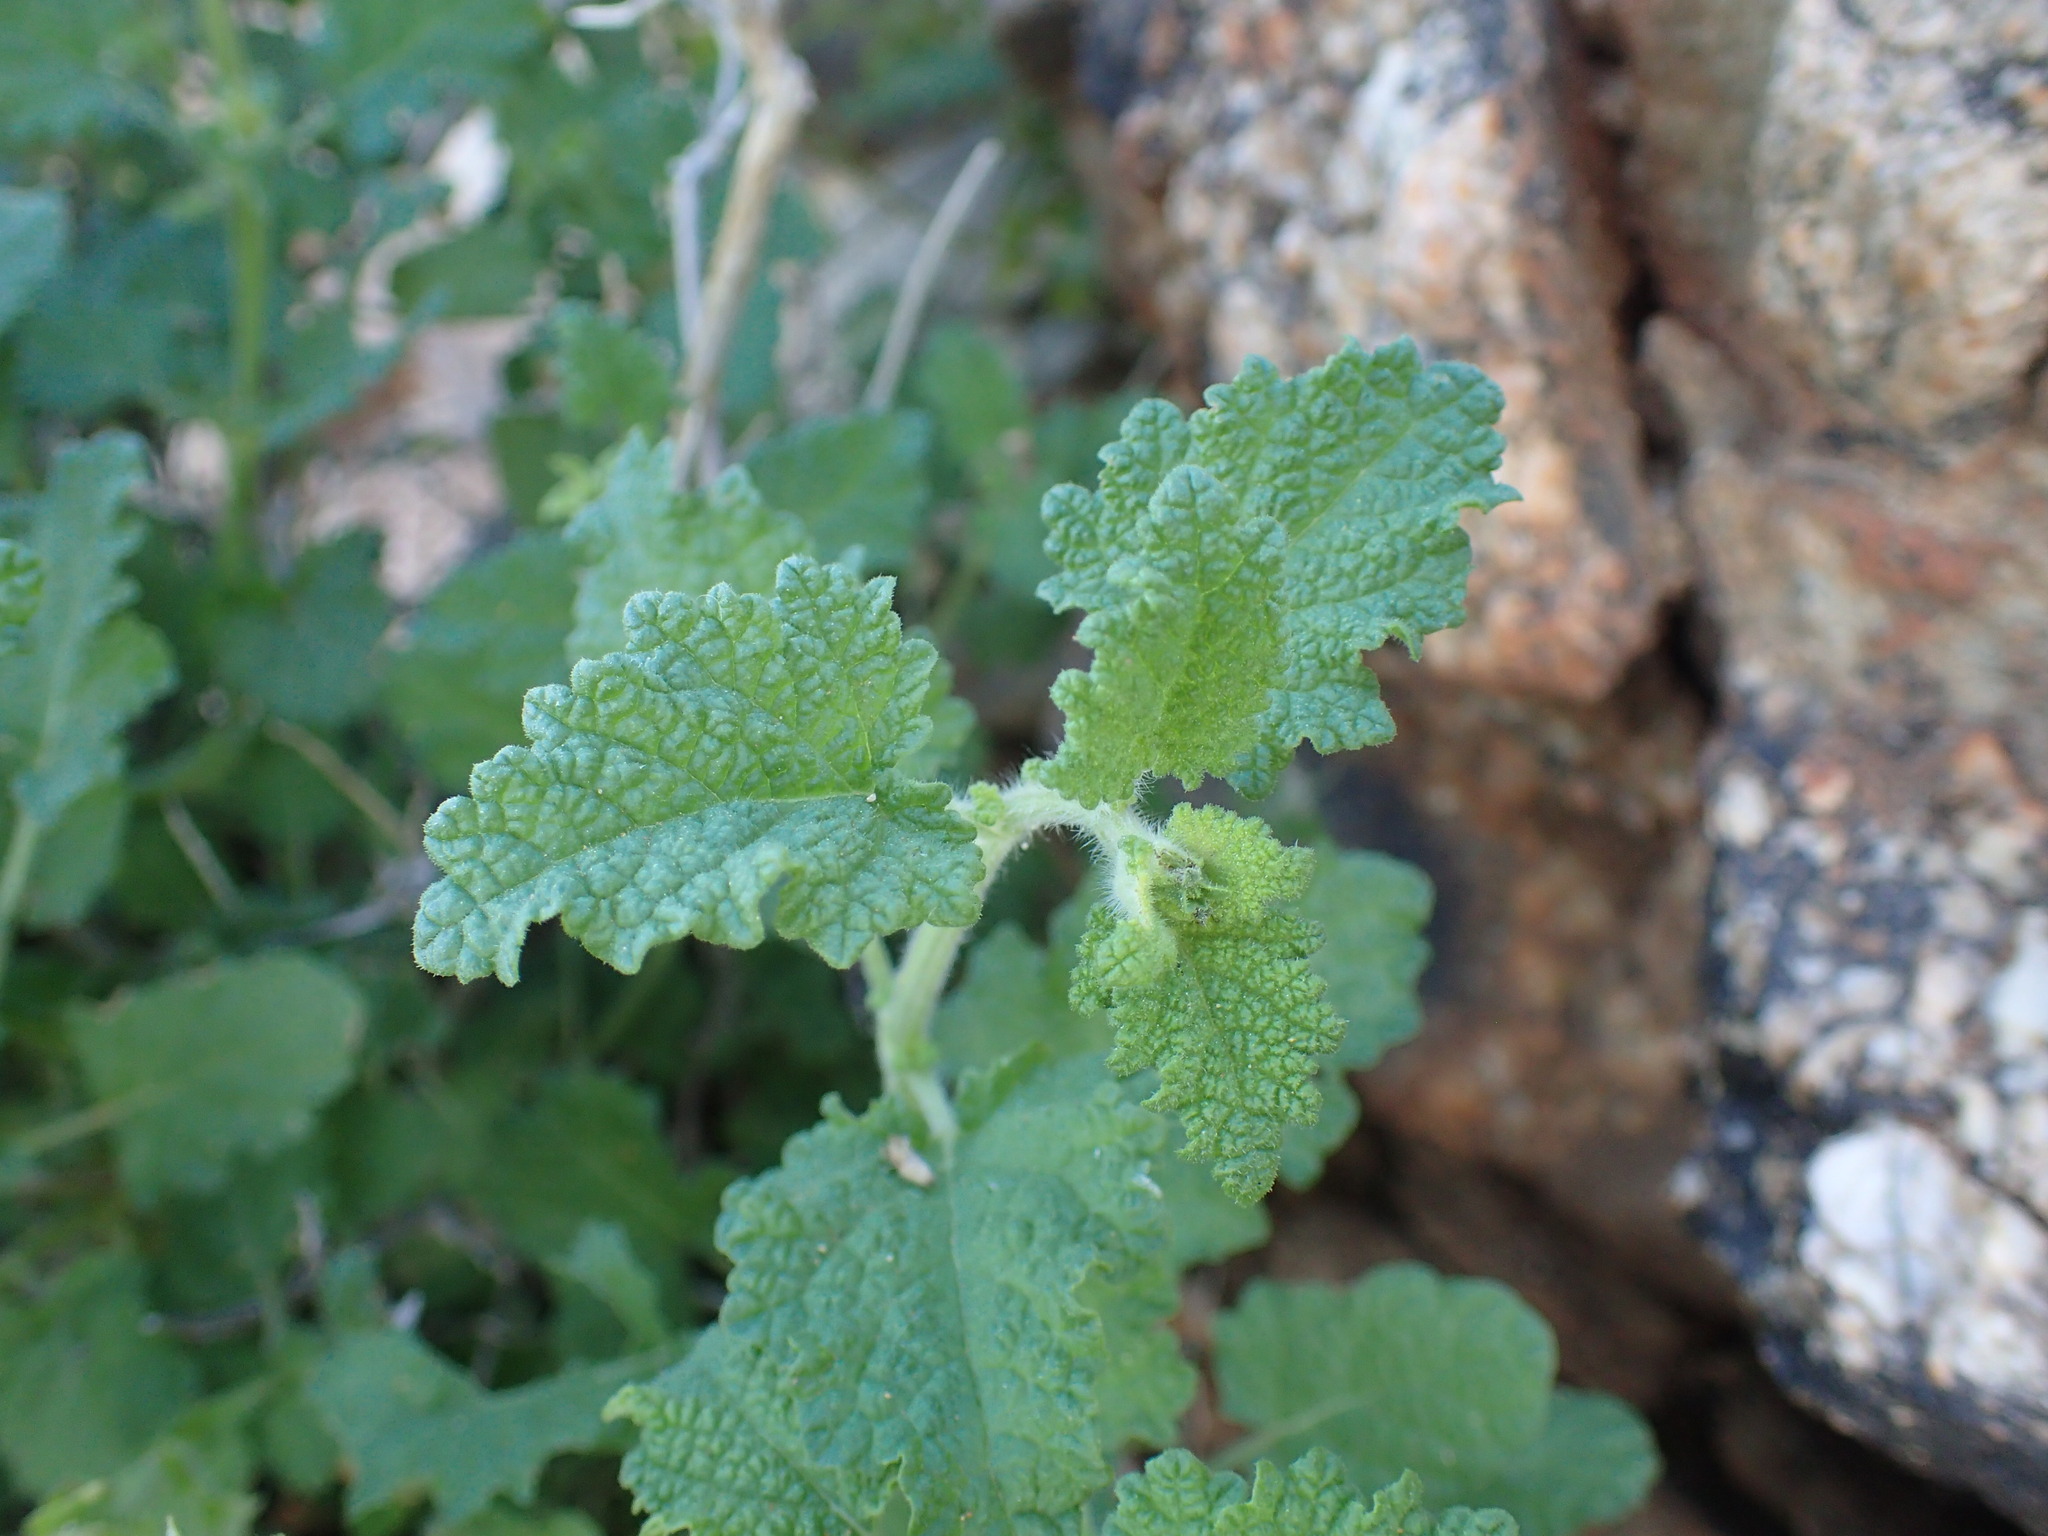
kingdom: Plantae
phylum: Tracheophyta
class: Magnoliopsida
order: Lamiales
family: Lamiaceae
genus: Salvia
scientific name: Salvia garipensis
